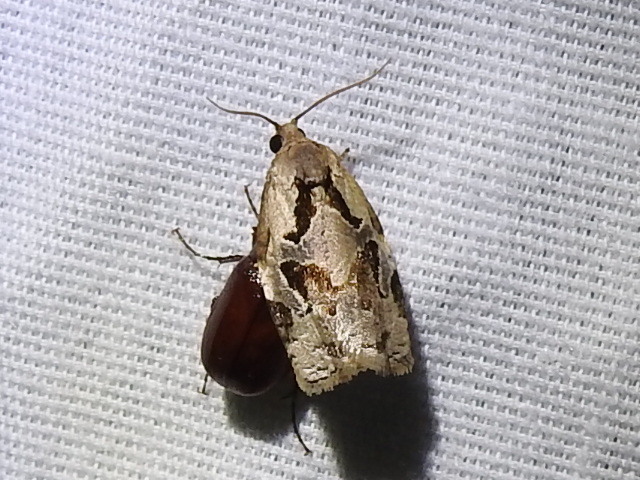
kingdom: Animalia
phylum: Arthropoda
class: Insecta
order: Lepidoptera
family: Tortricidae
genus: Archips
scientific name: Archips grisea
